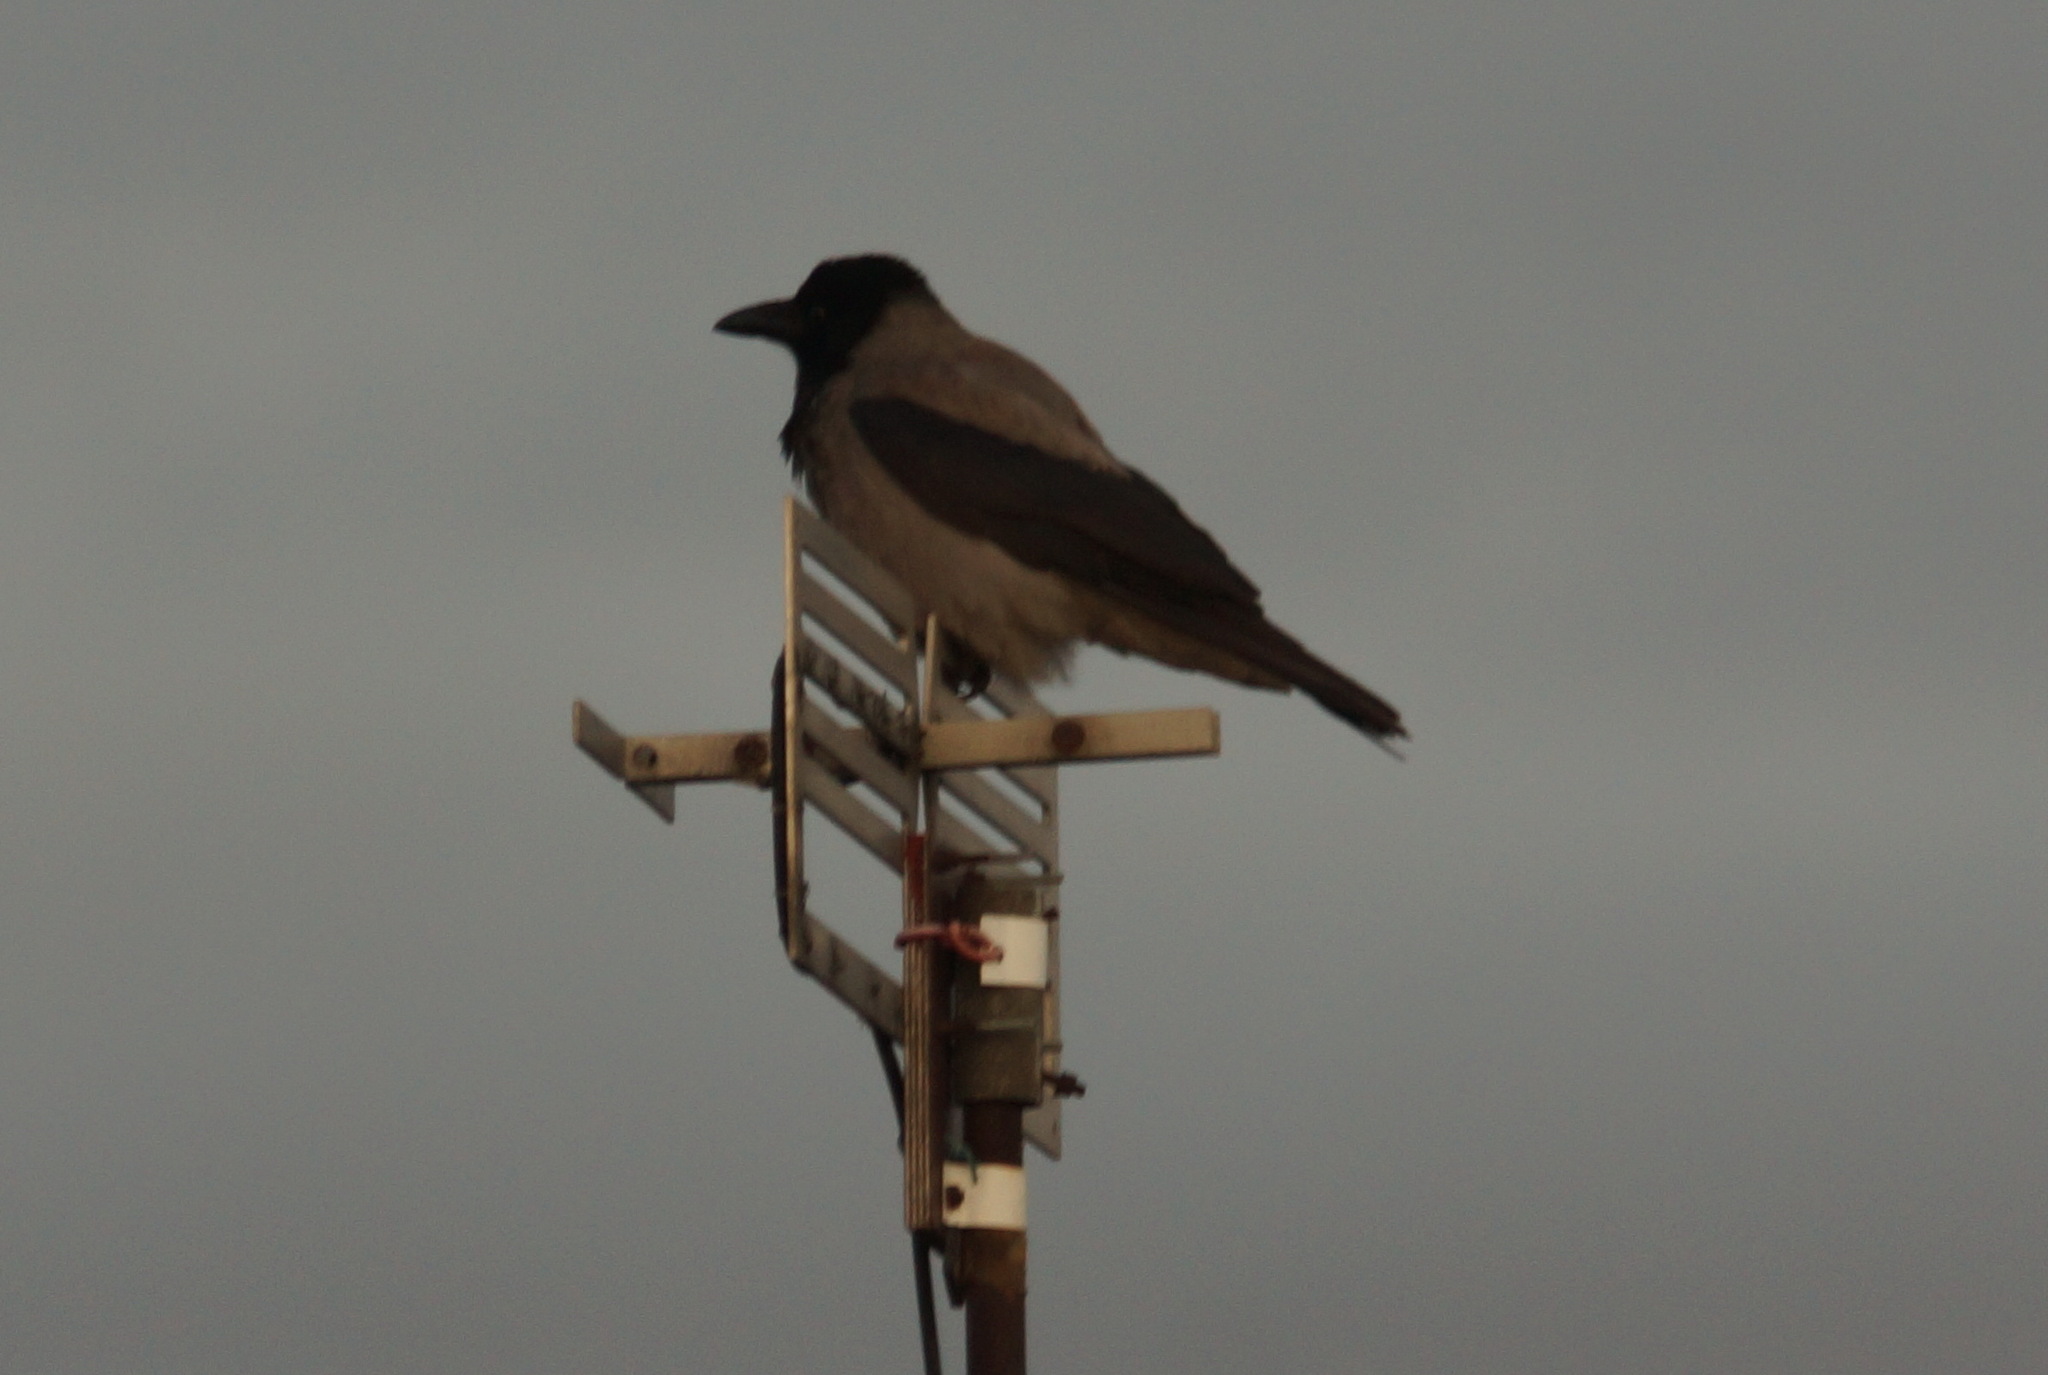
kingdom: Animalia
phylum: Chordata
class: Aves
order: Passeriformes
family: Corvidae
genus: Corvus
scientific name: Corvus cornix
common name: Hooded crow
